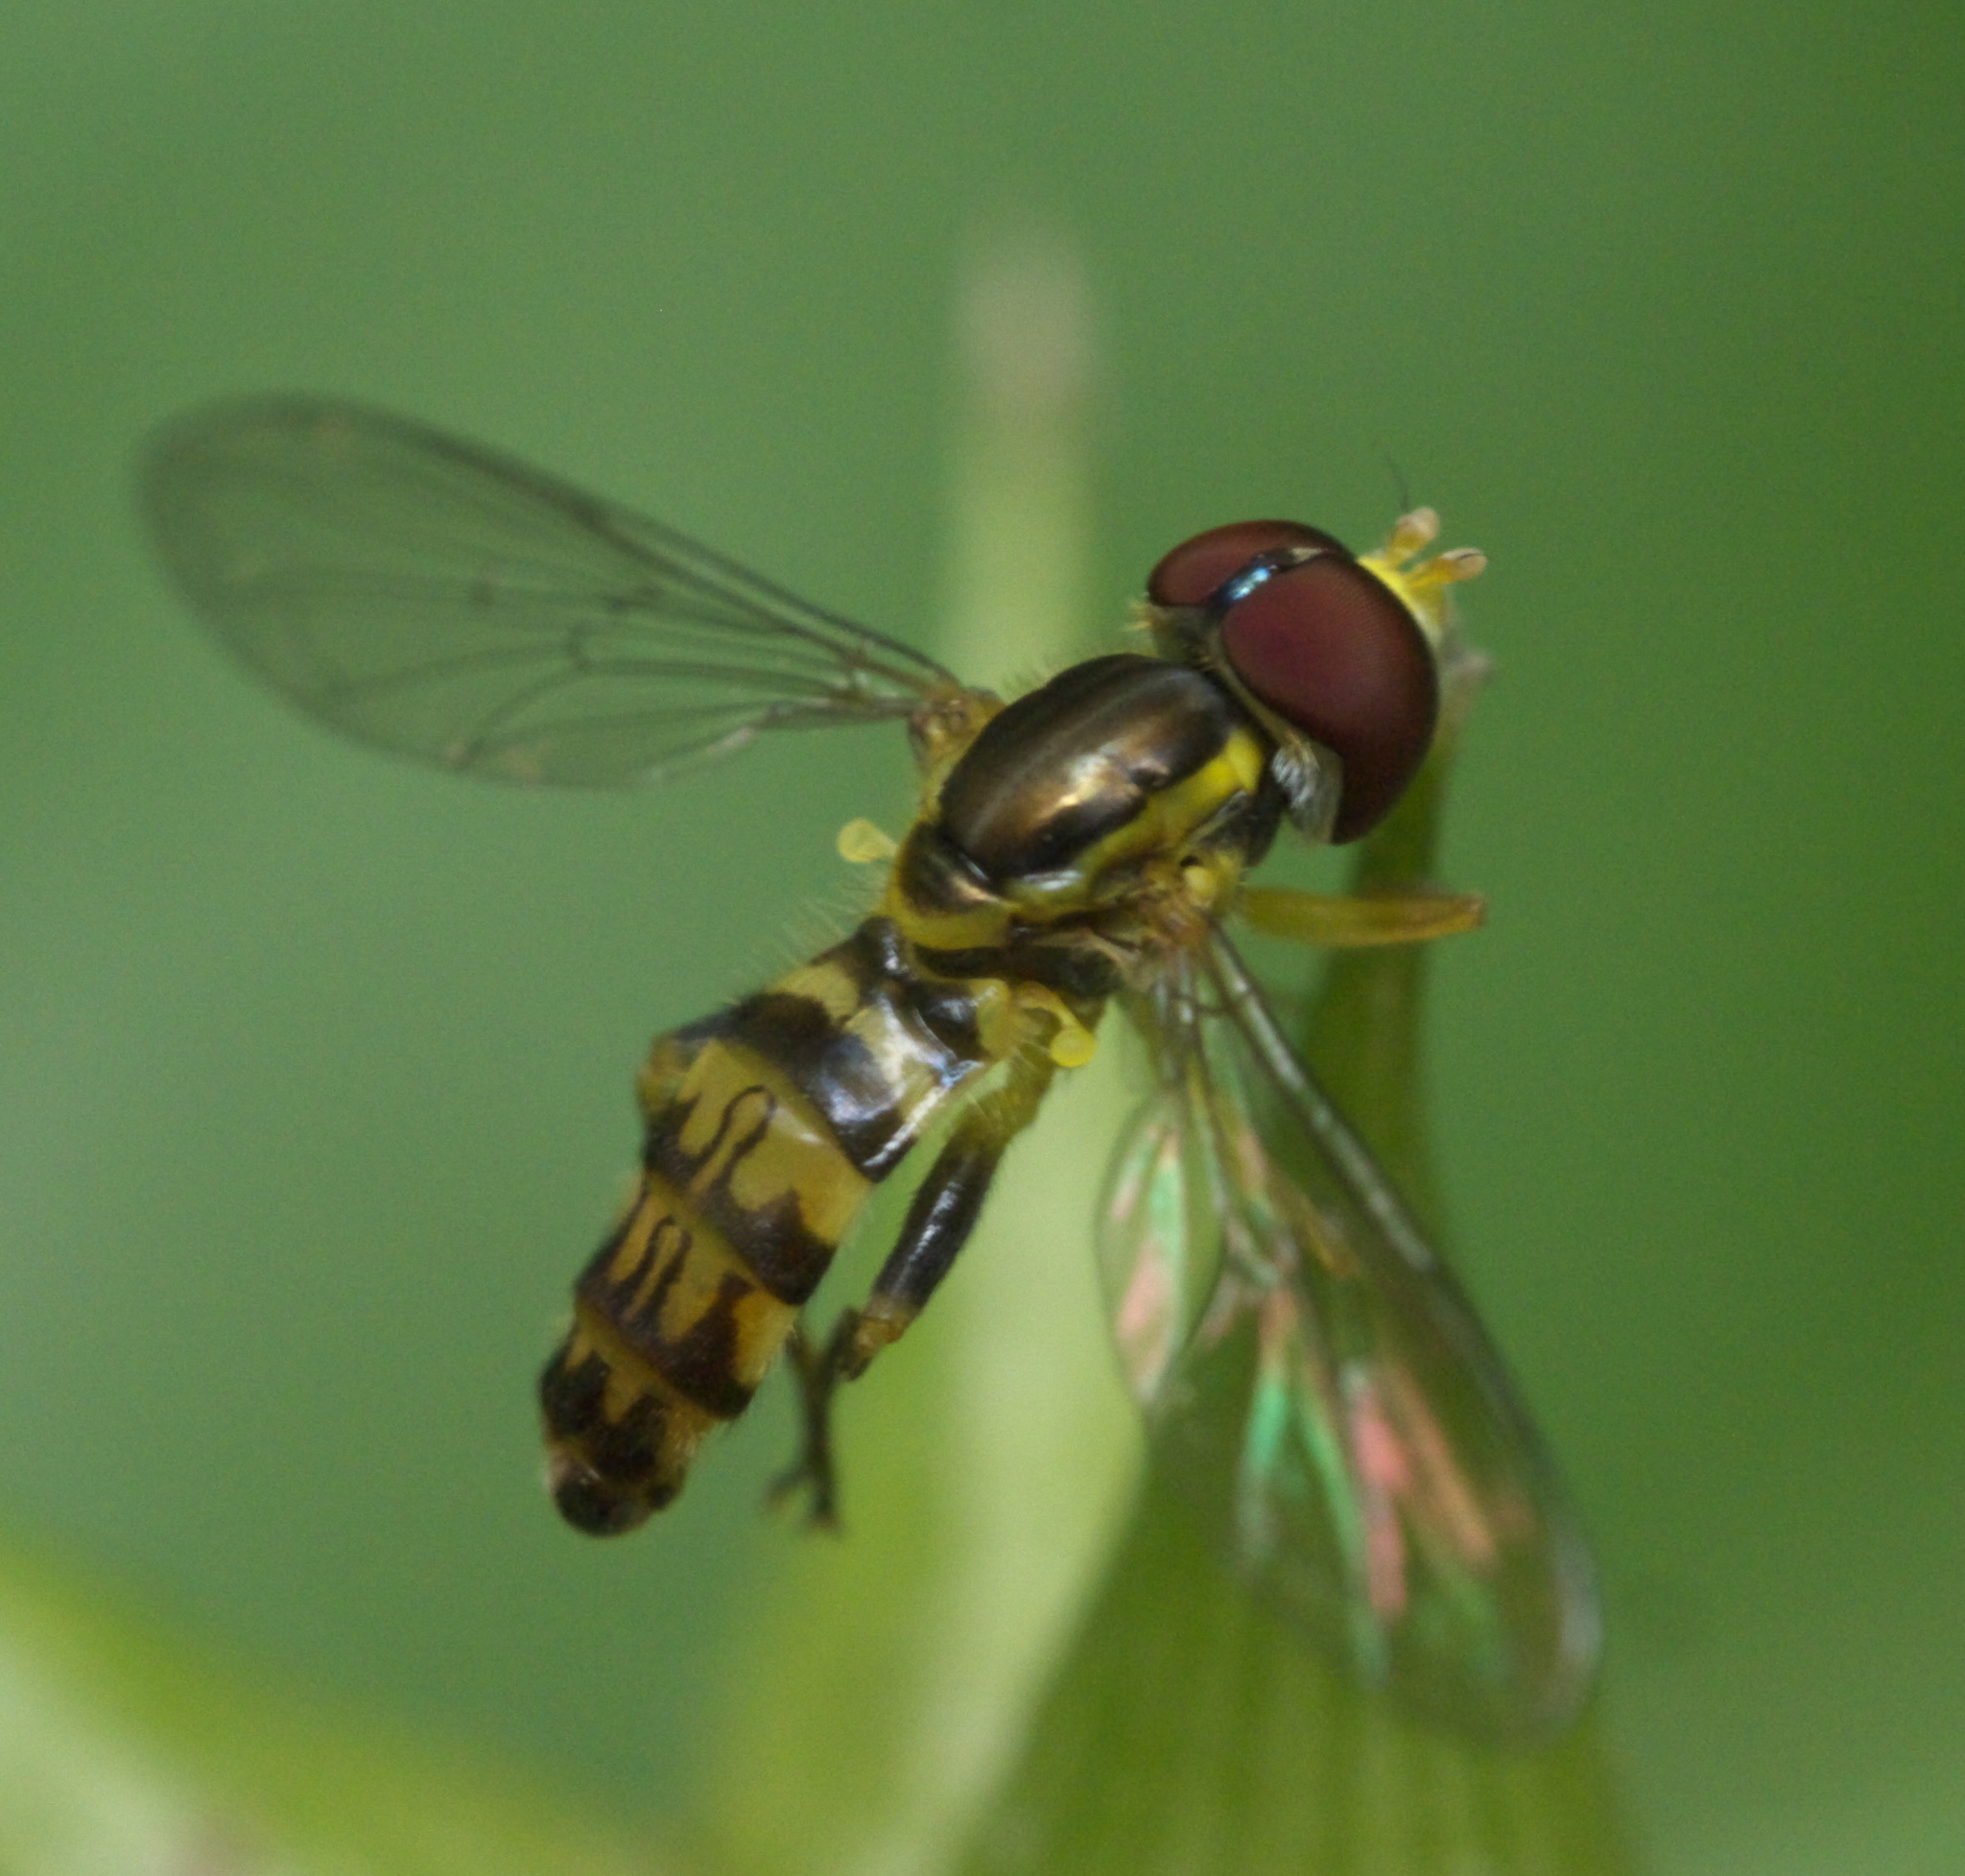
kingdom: Animalia
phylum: Arthropoda
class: Insecta
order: Diptera
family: Syrphidae
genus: Toxomerus
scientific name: Toxomerus geminatus
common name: Eastern calligrapher
